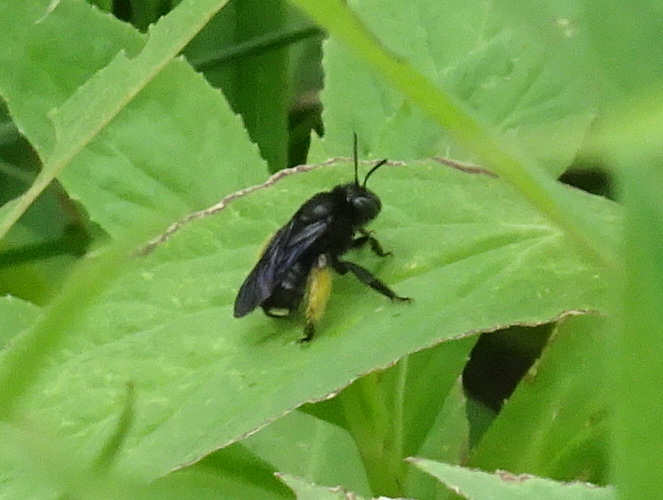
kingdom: Animalia
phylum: Arthropoda
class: Insecta
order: Hymenoptera
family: Apidae
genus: Melissodes
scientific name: Melissodes bimaculatus
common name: Two-spotted long-horned bee
